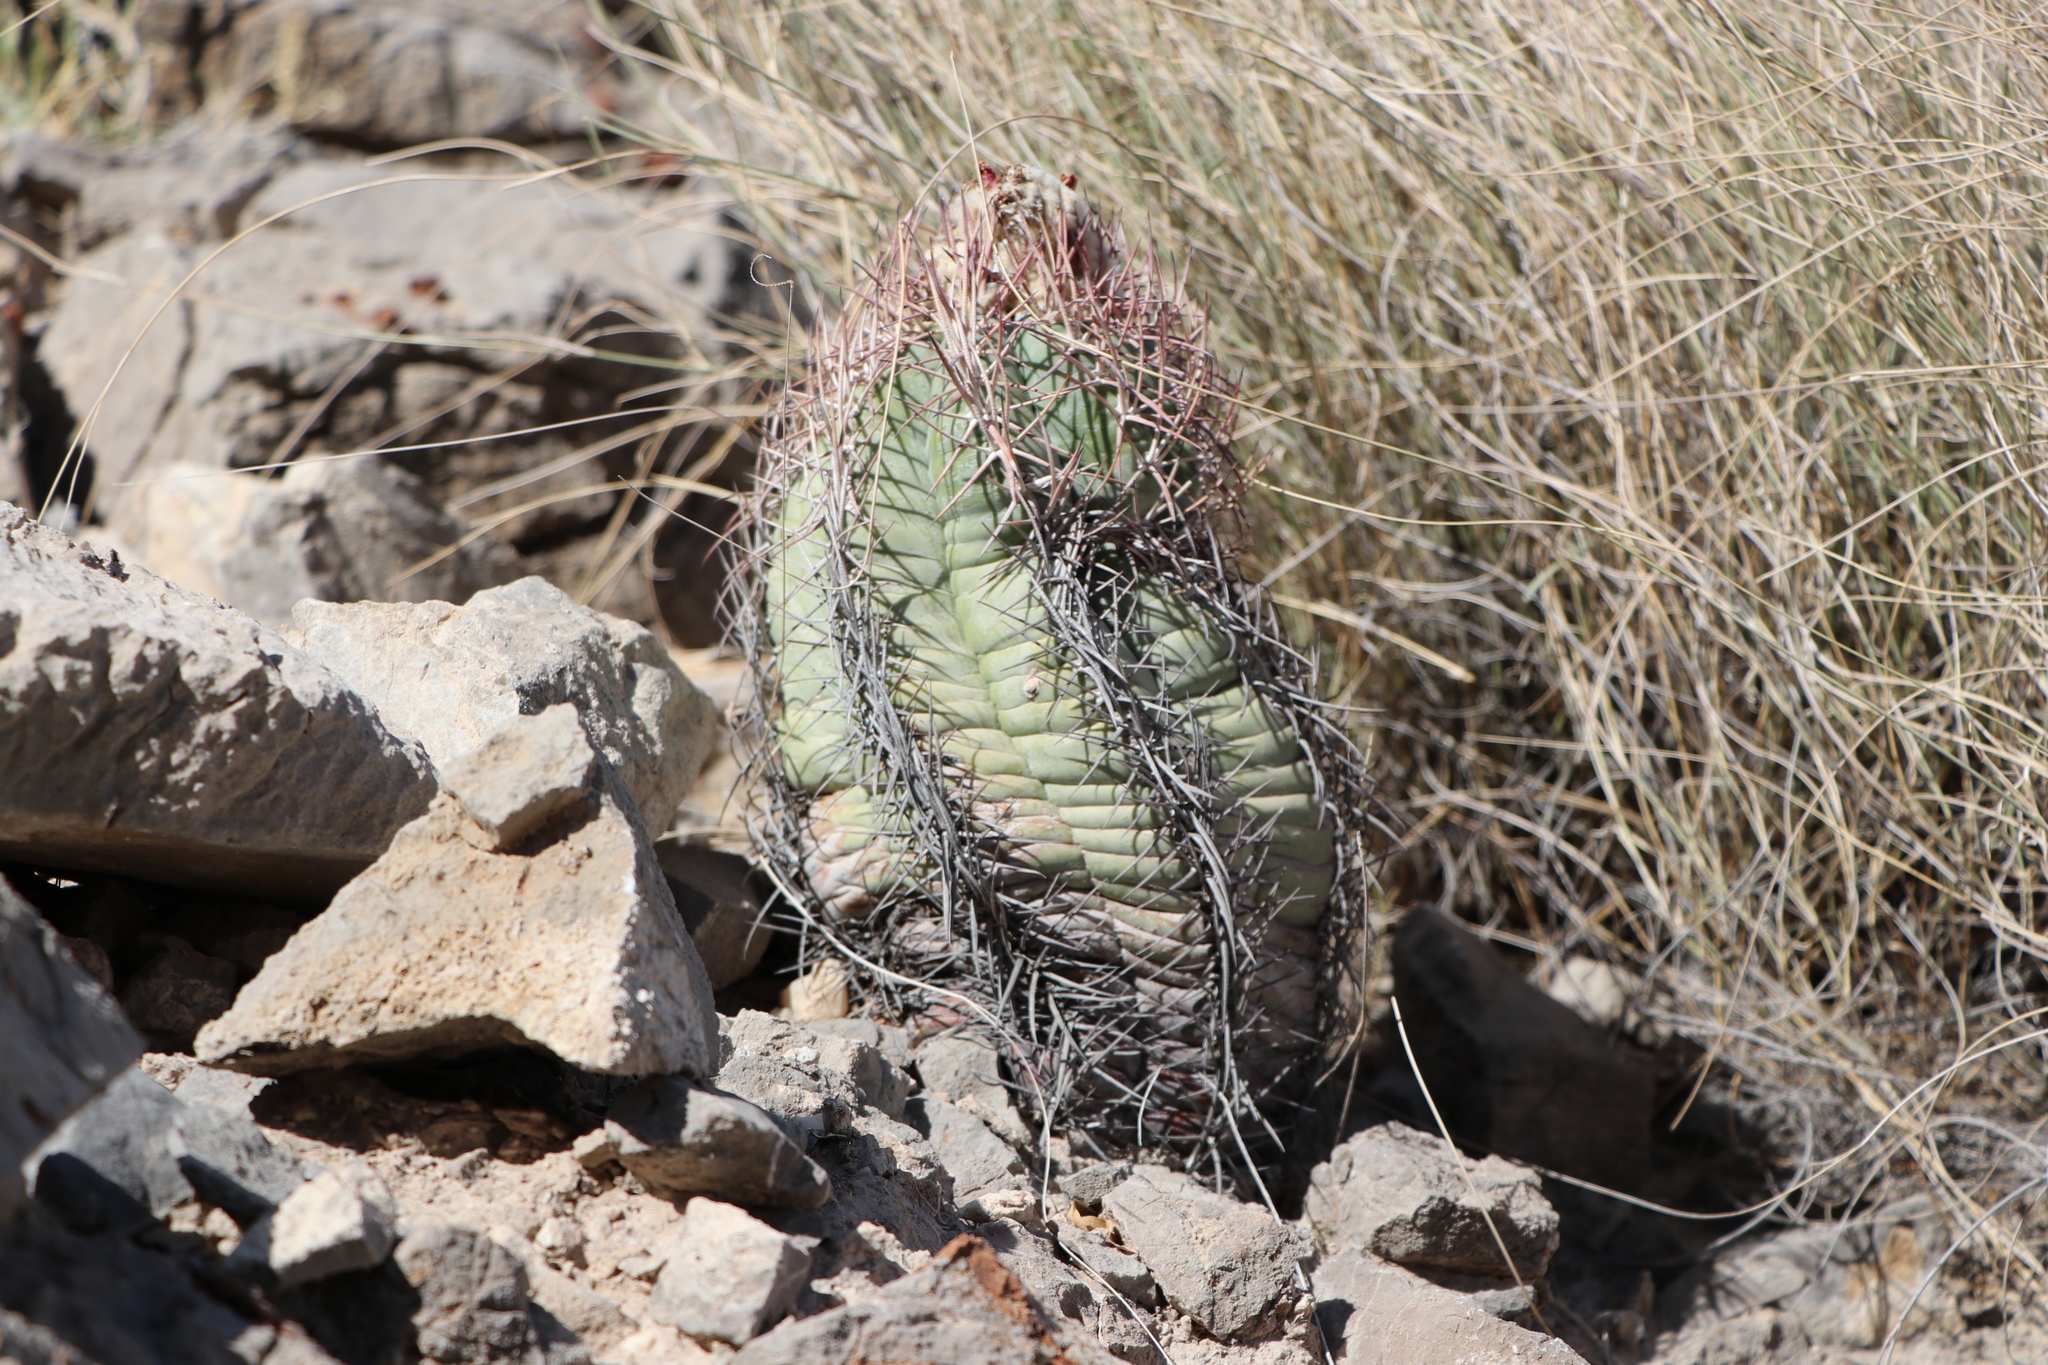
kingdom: Plantae
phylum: Tracheophyta
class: Magnoliopsida
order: Caryophyllales
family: Cactaceae
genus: Echinocactus
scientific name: Echinocactus horizonthalonius
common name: Devilshead
